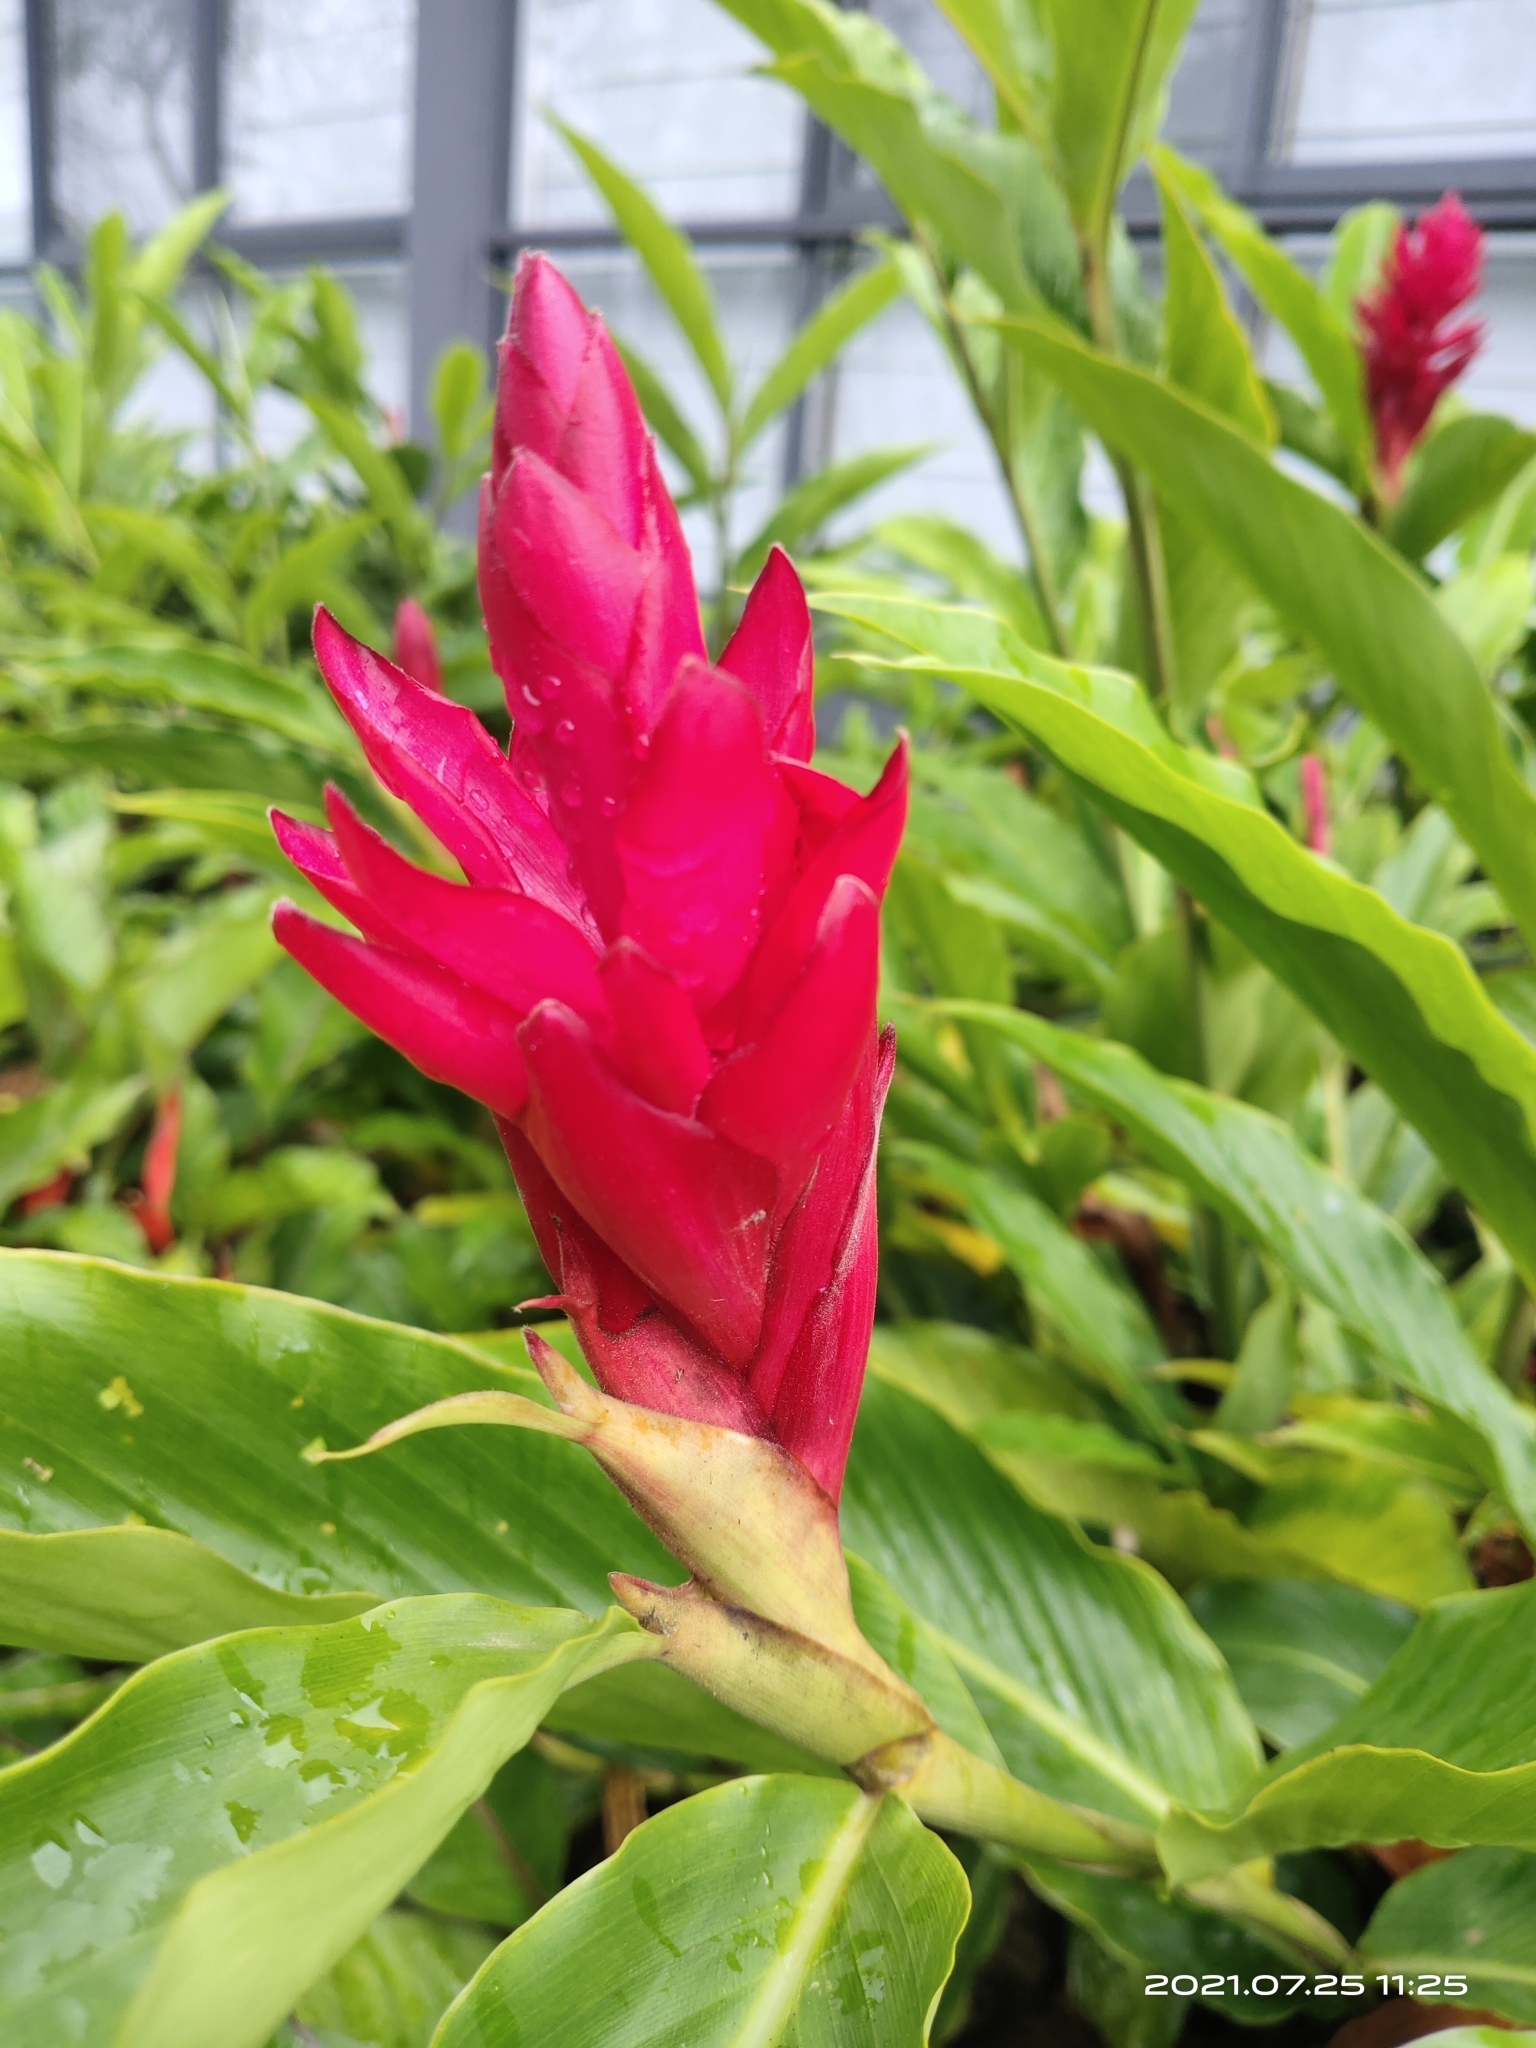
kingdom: Plantae
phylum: Tracheophyta
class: Liliopsida
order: Zingiberales
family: Zingiberaceae
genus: Alpinia
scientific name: Alpinia purpurata
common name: Red ginger
